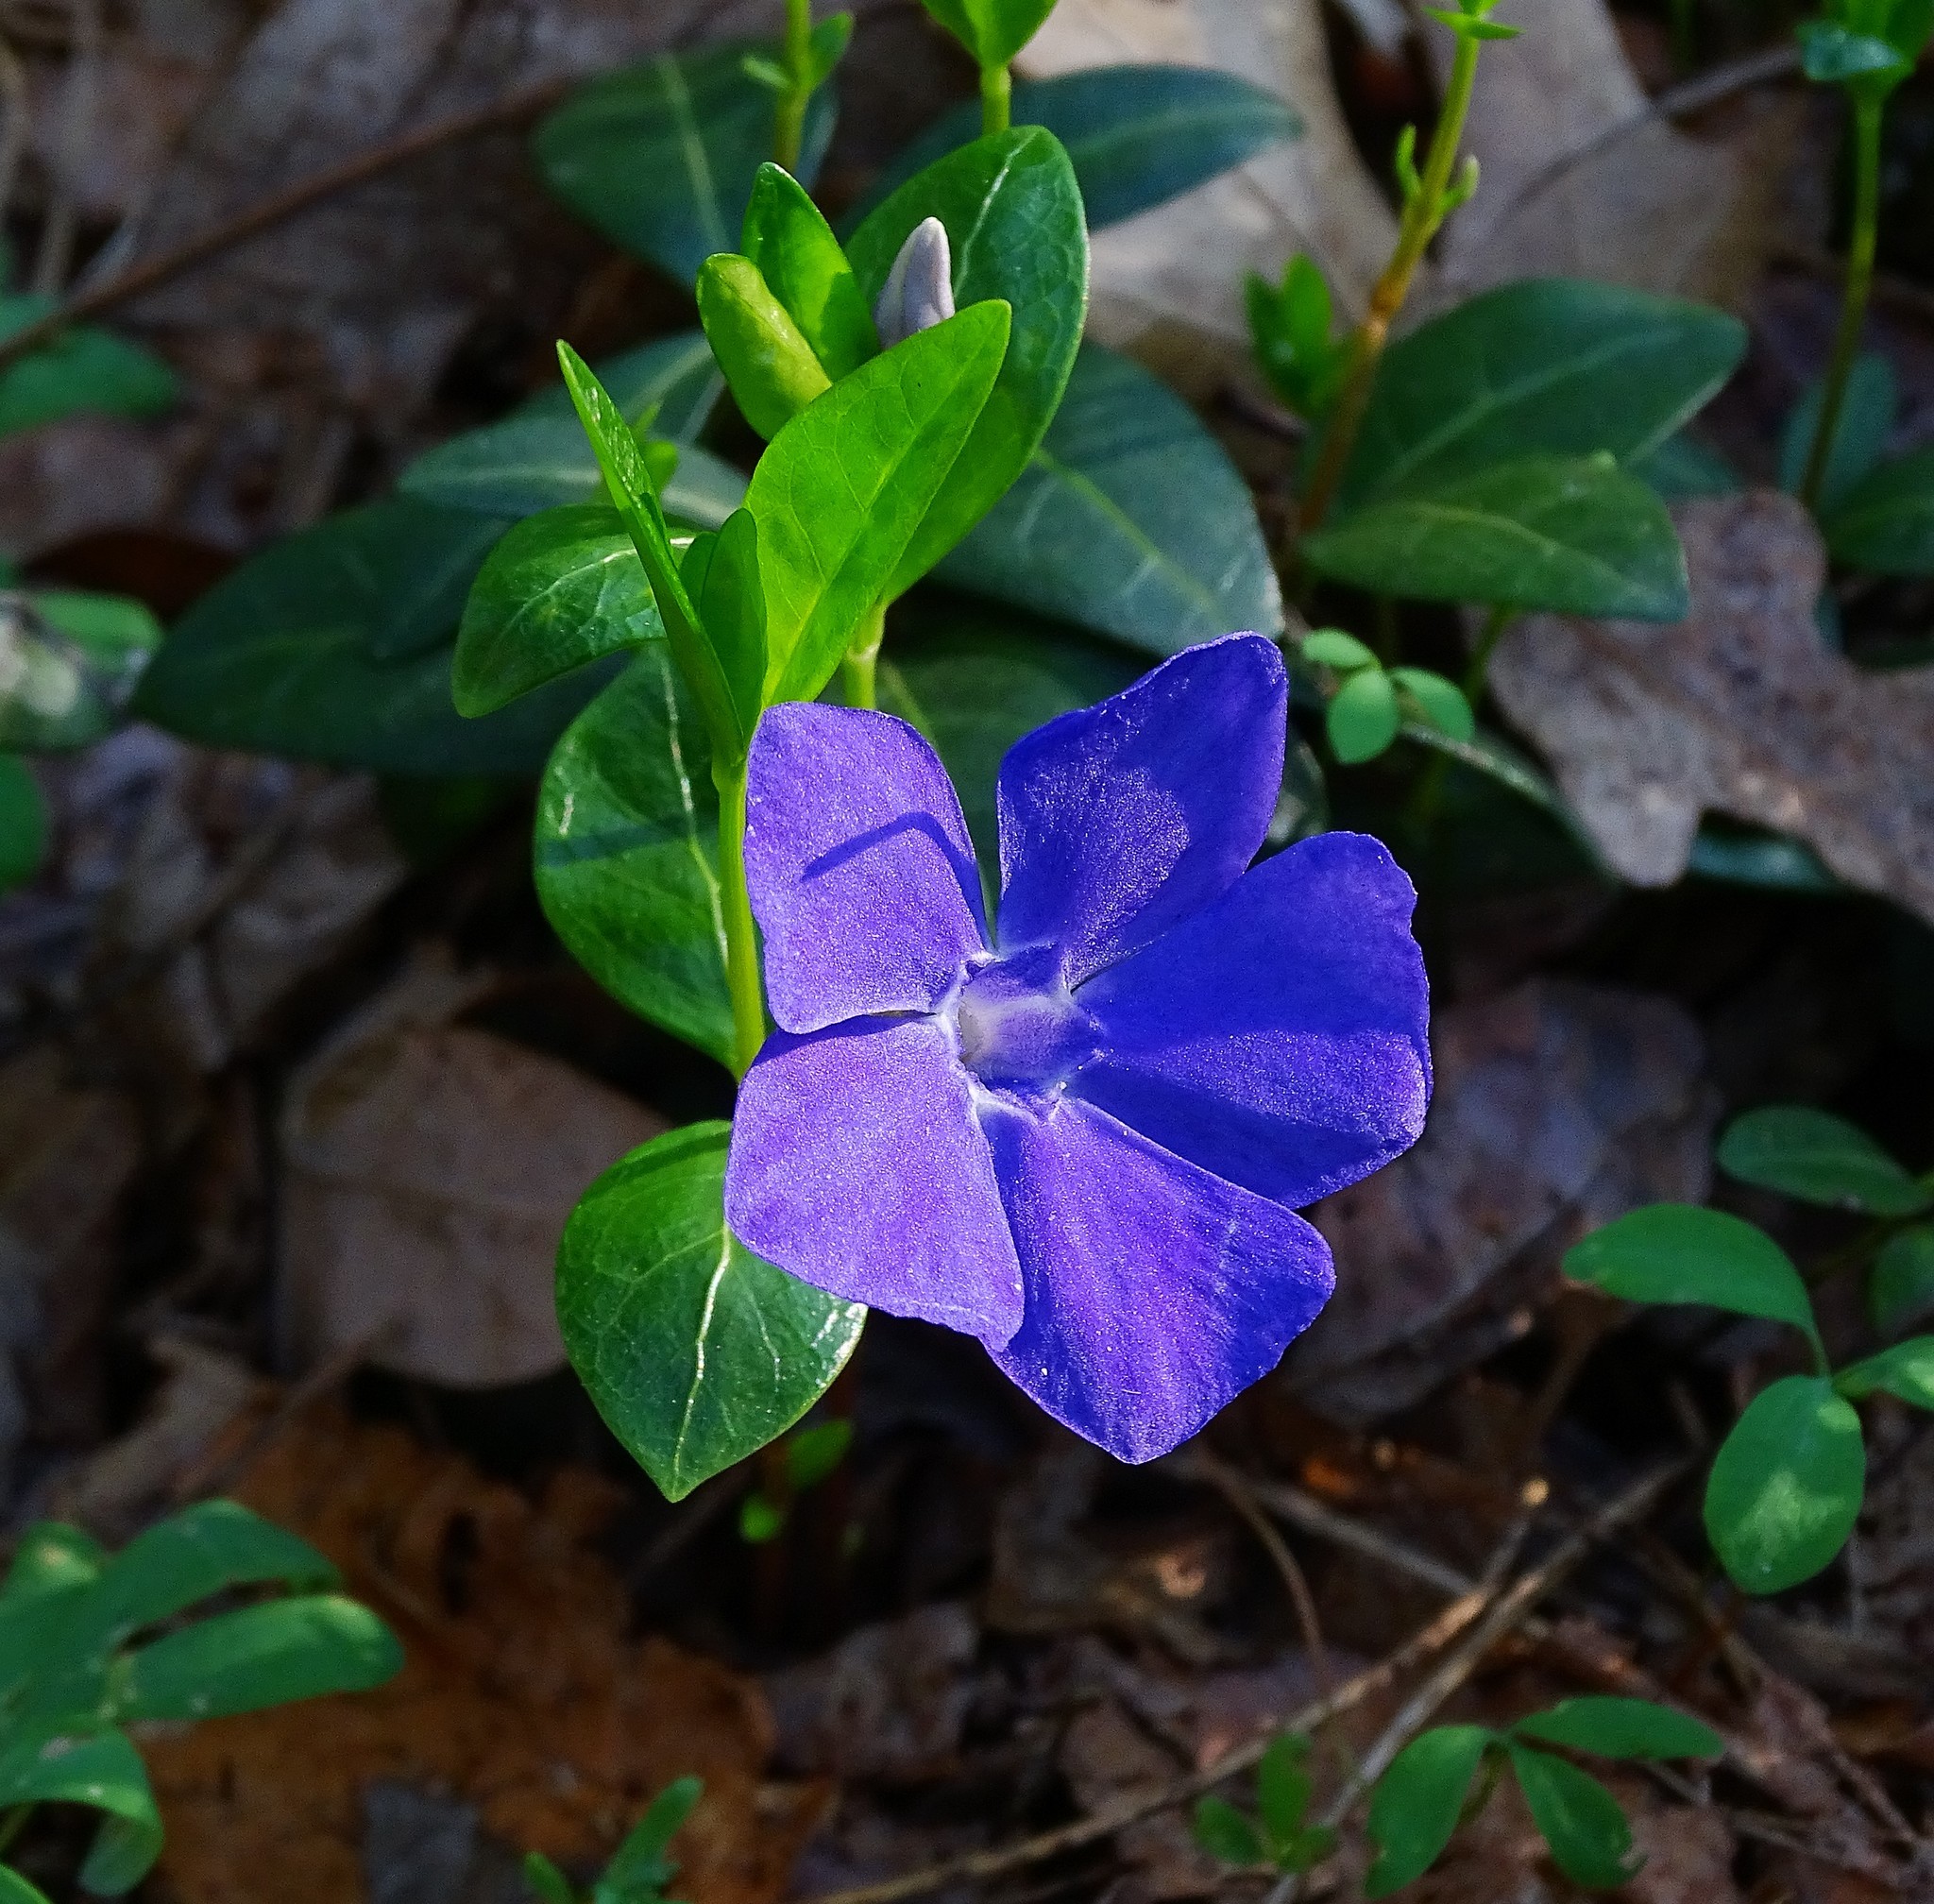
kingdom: Plantae
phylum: Tracheophyta
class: Magnoliopsida
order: Gentianales
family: Apocynaceae
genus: Vinca
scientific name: Vinca minor
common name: Lesser periwinkle
